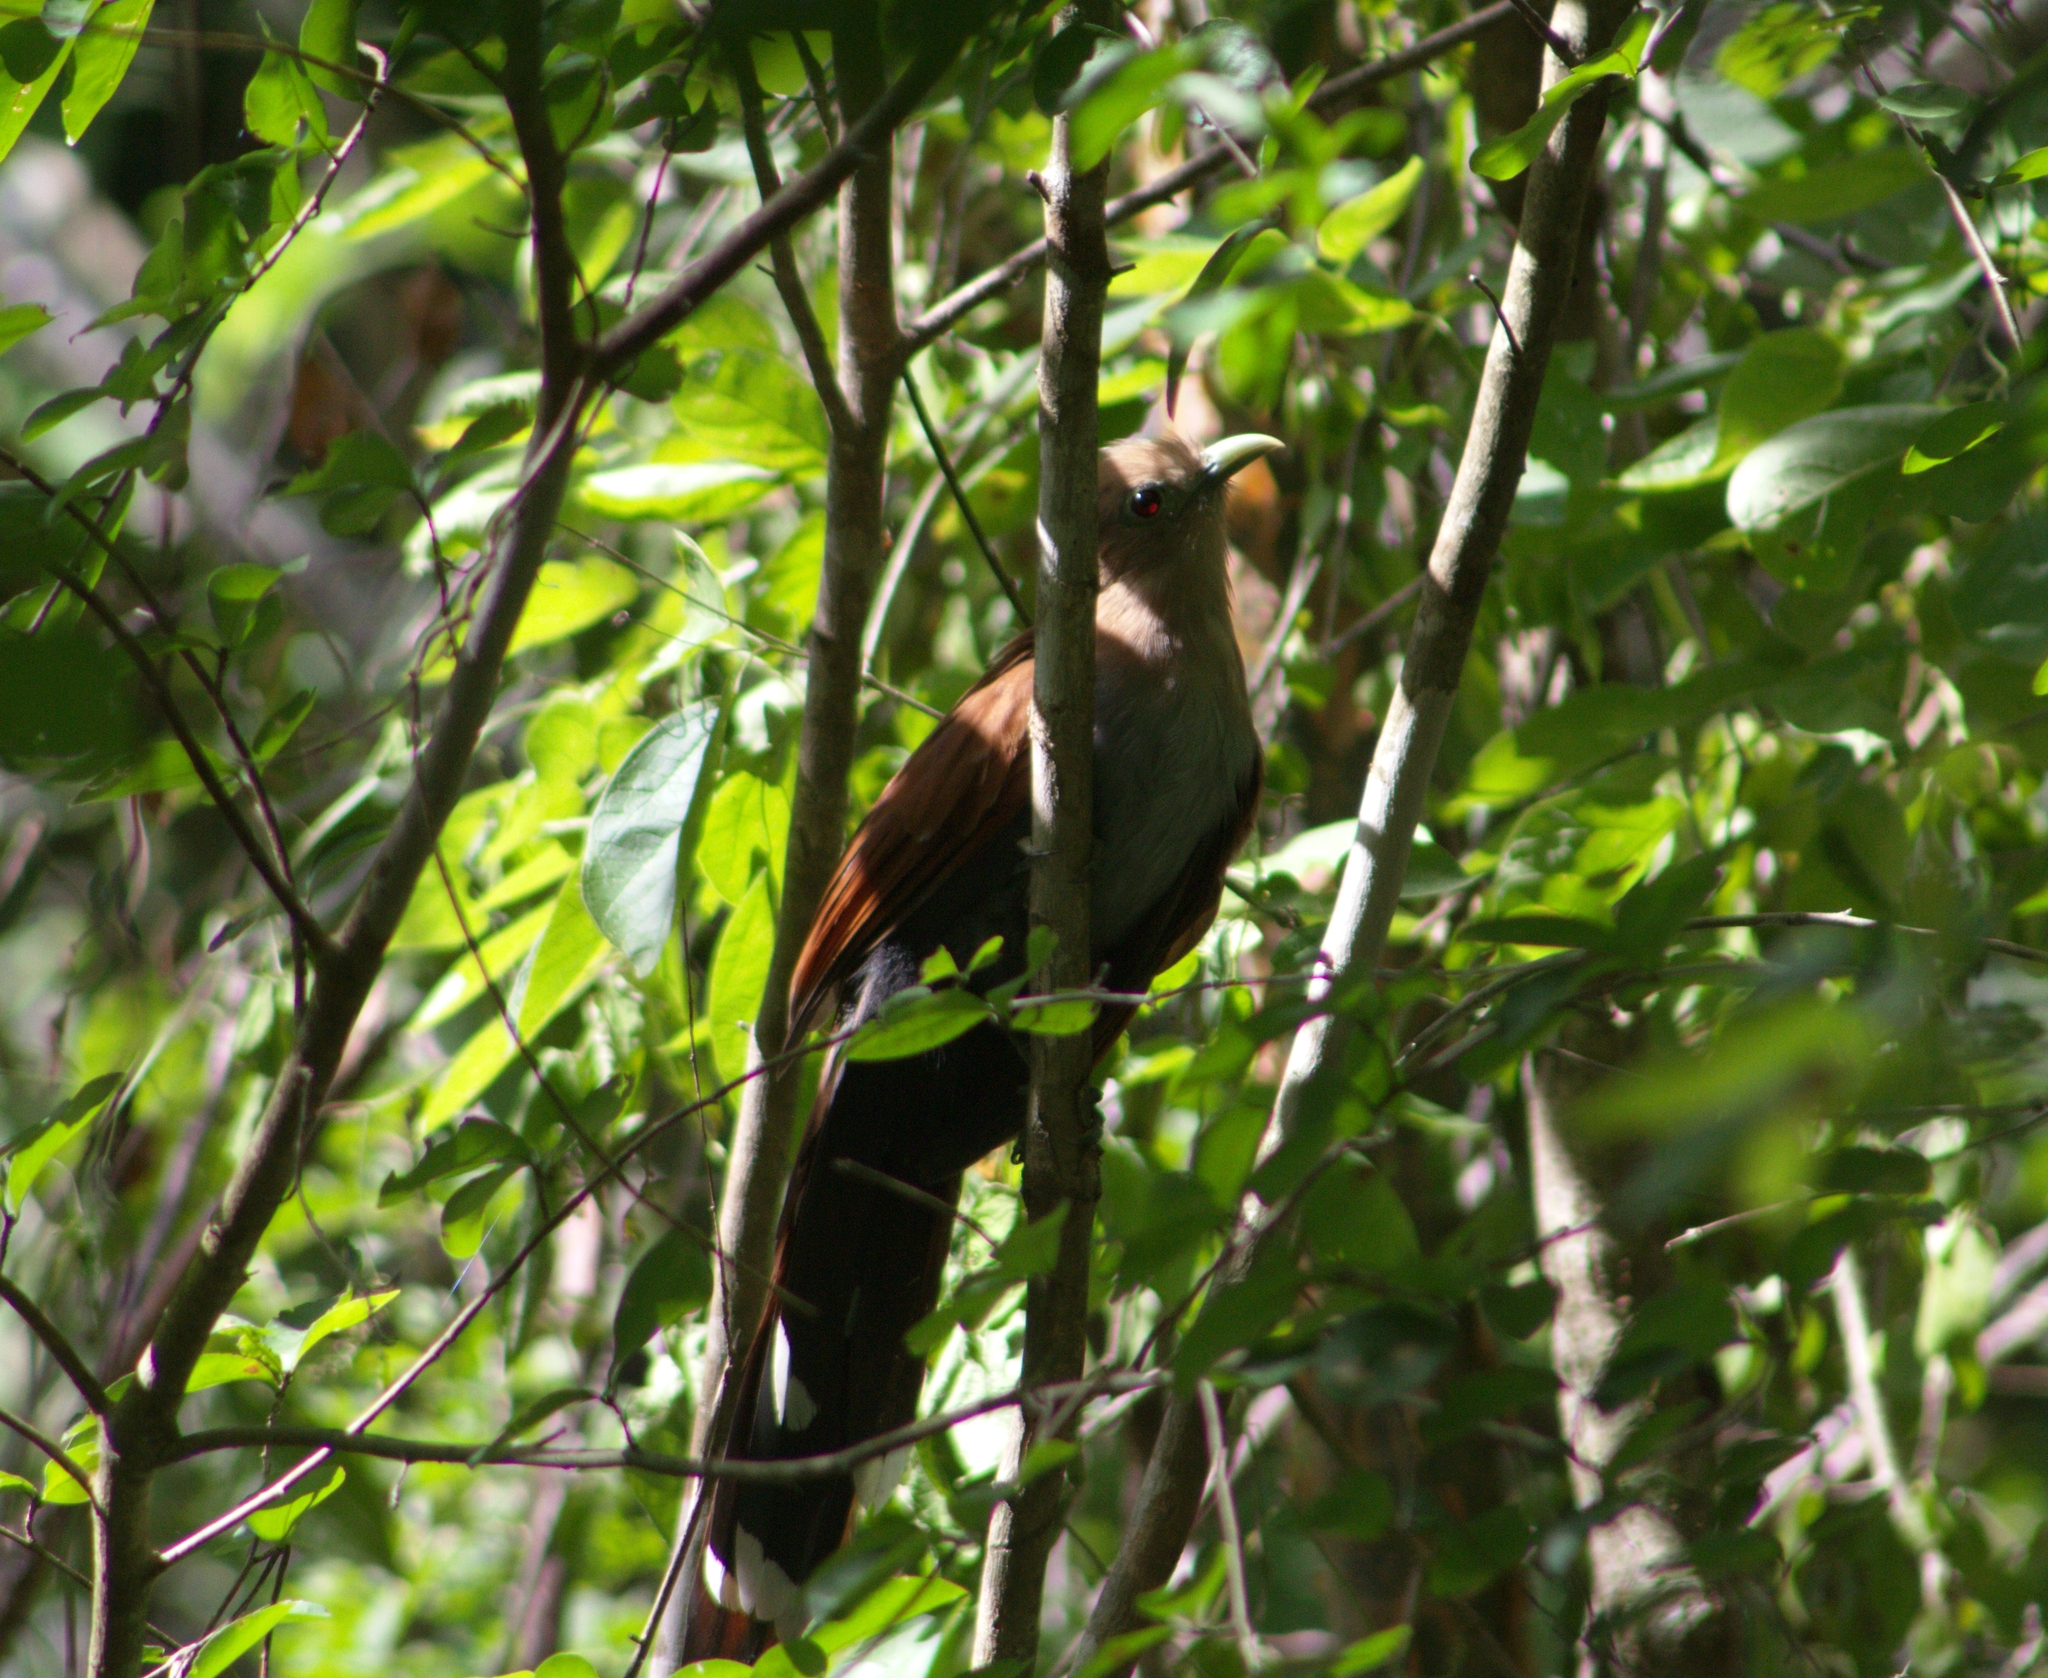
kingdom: Animalia
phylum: Chordata
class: Aves
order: Cuculiformes
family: Cuculidae
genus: Piaya
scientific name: Piaya cayana
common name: Squirrel cuckoo
